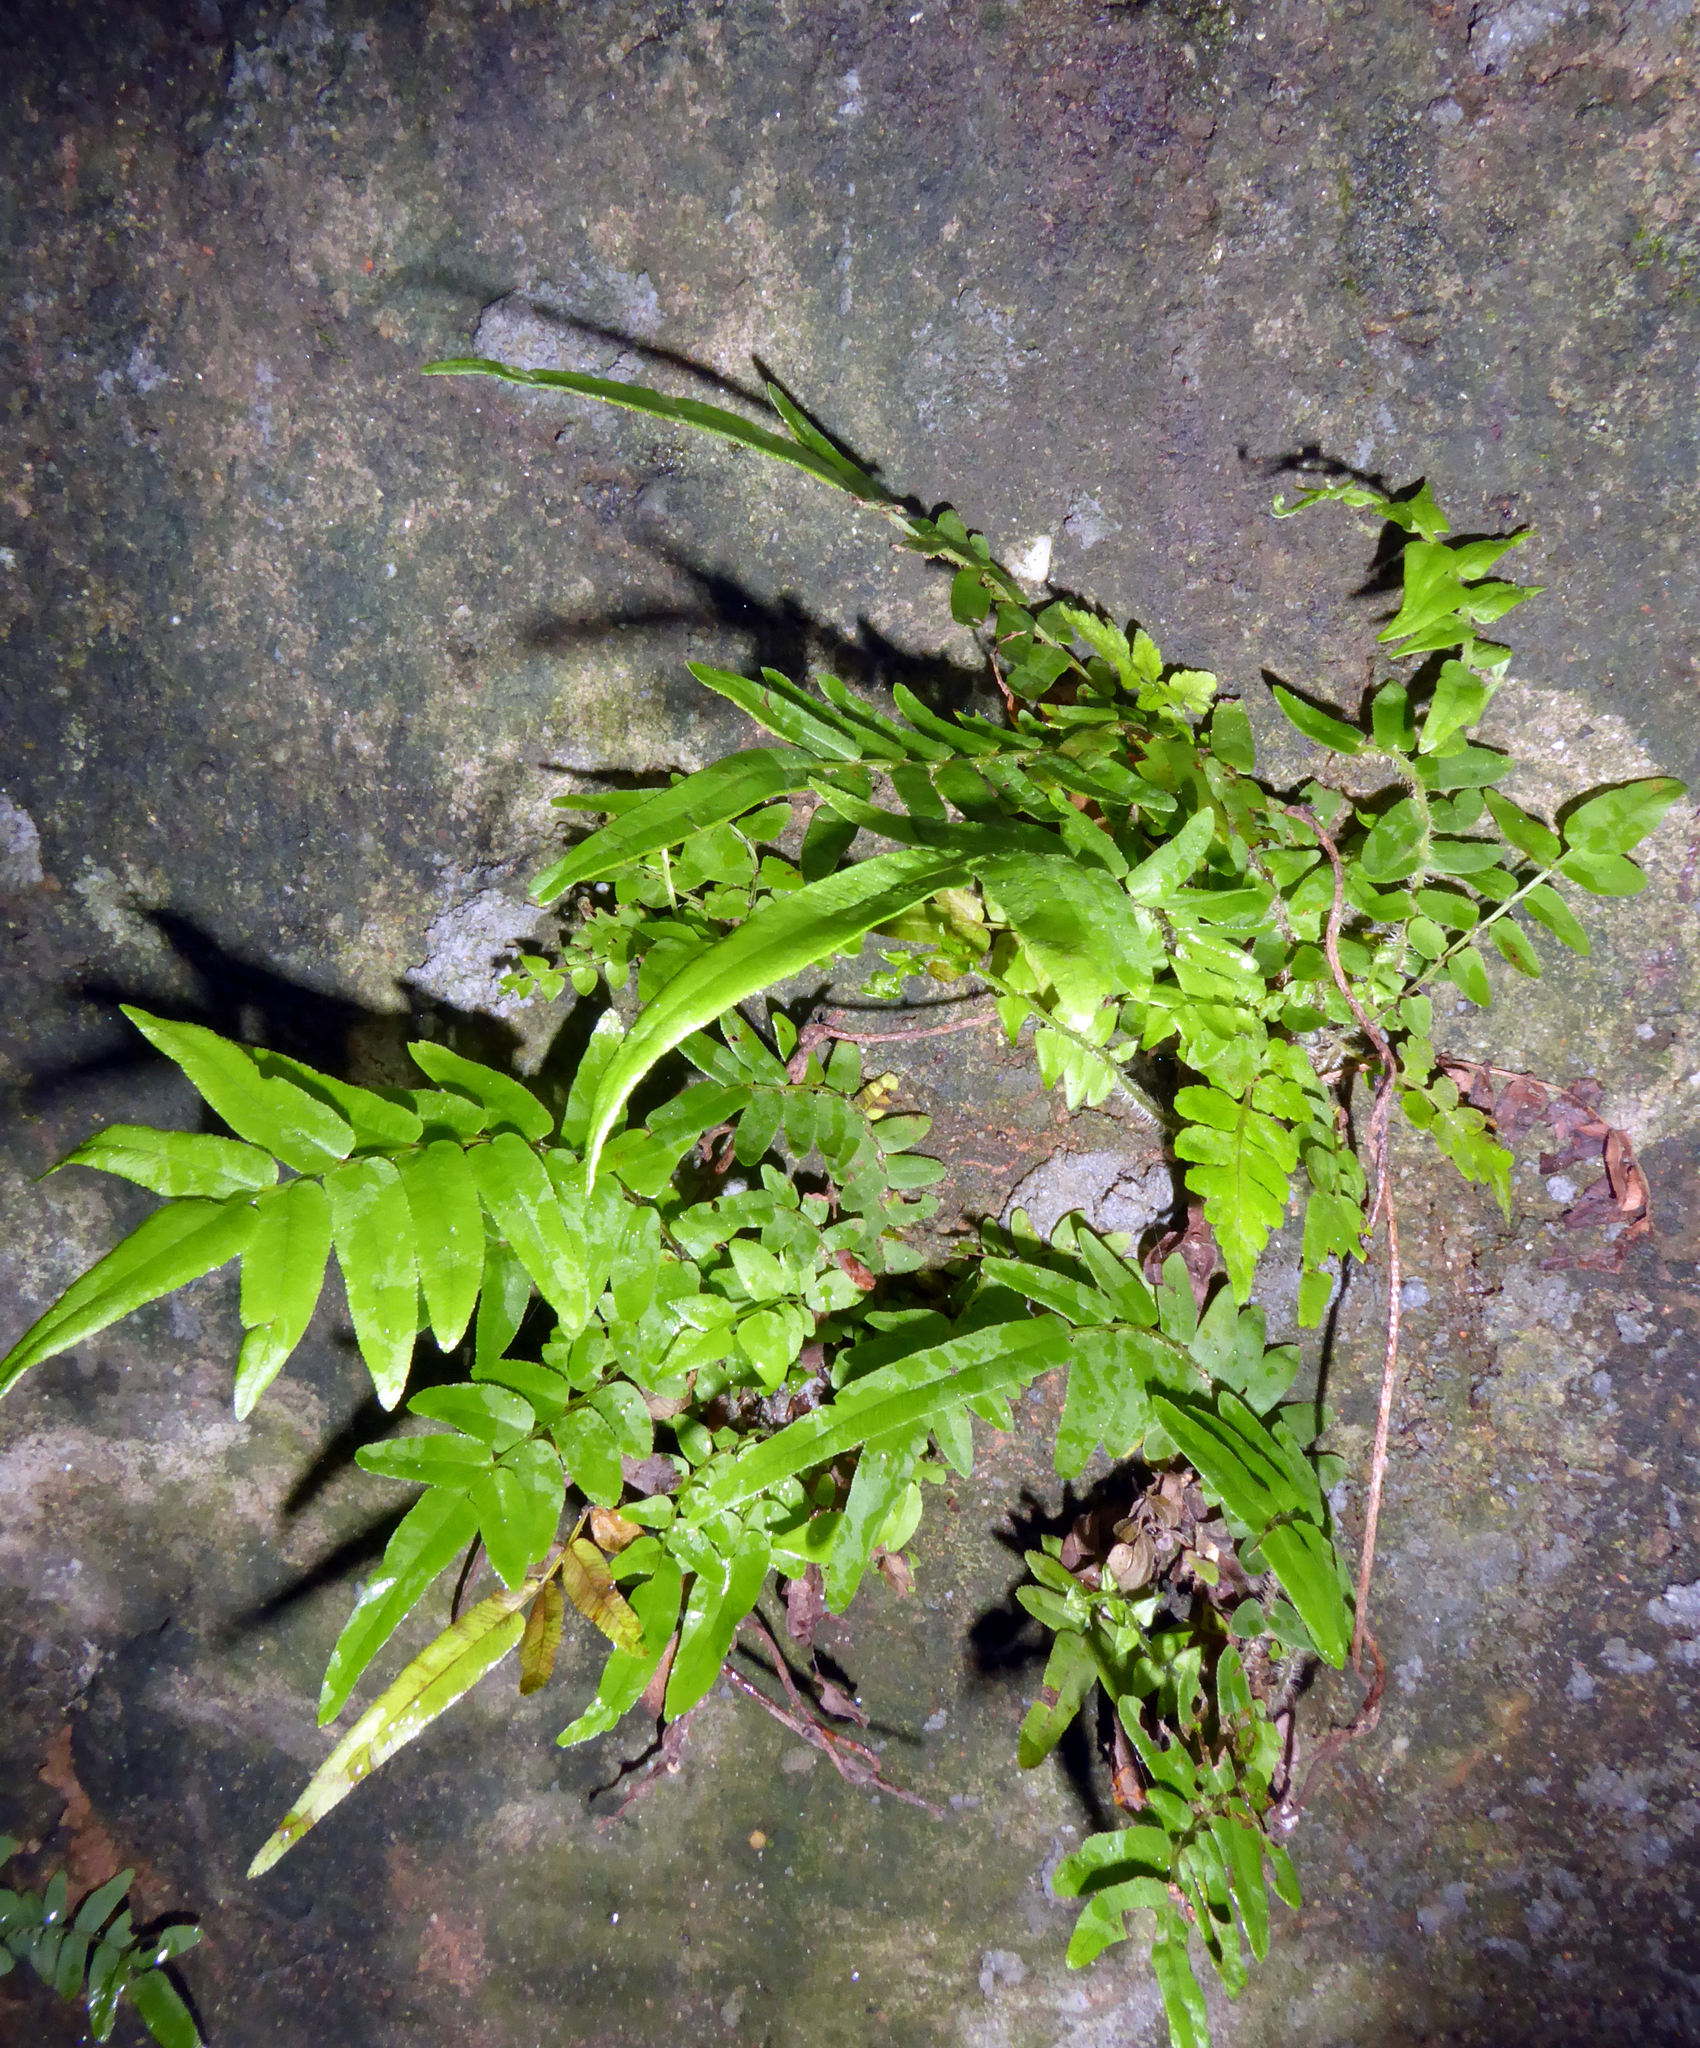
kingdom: Plantae
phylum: Tracheophyta
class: Polypodiopsida
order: Polypodiales
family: Pteridaceae
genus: Pteris
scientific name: Pteris vittata
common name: Ladder brake
